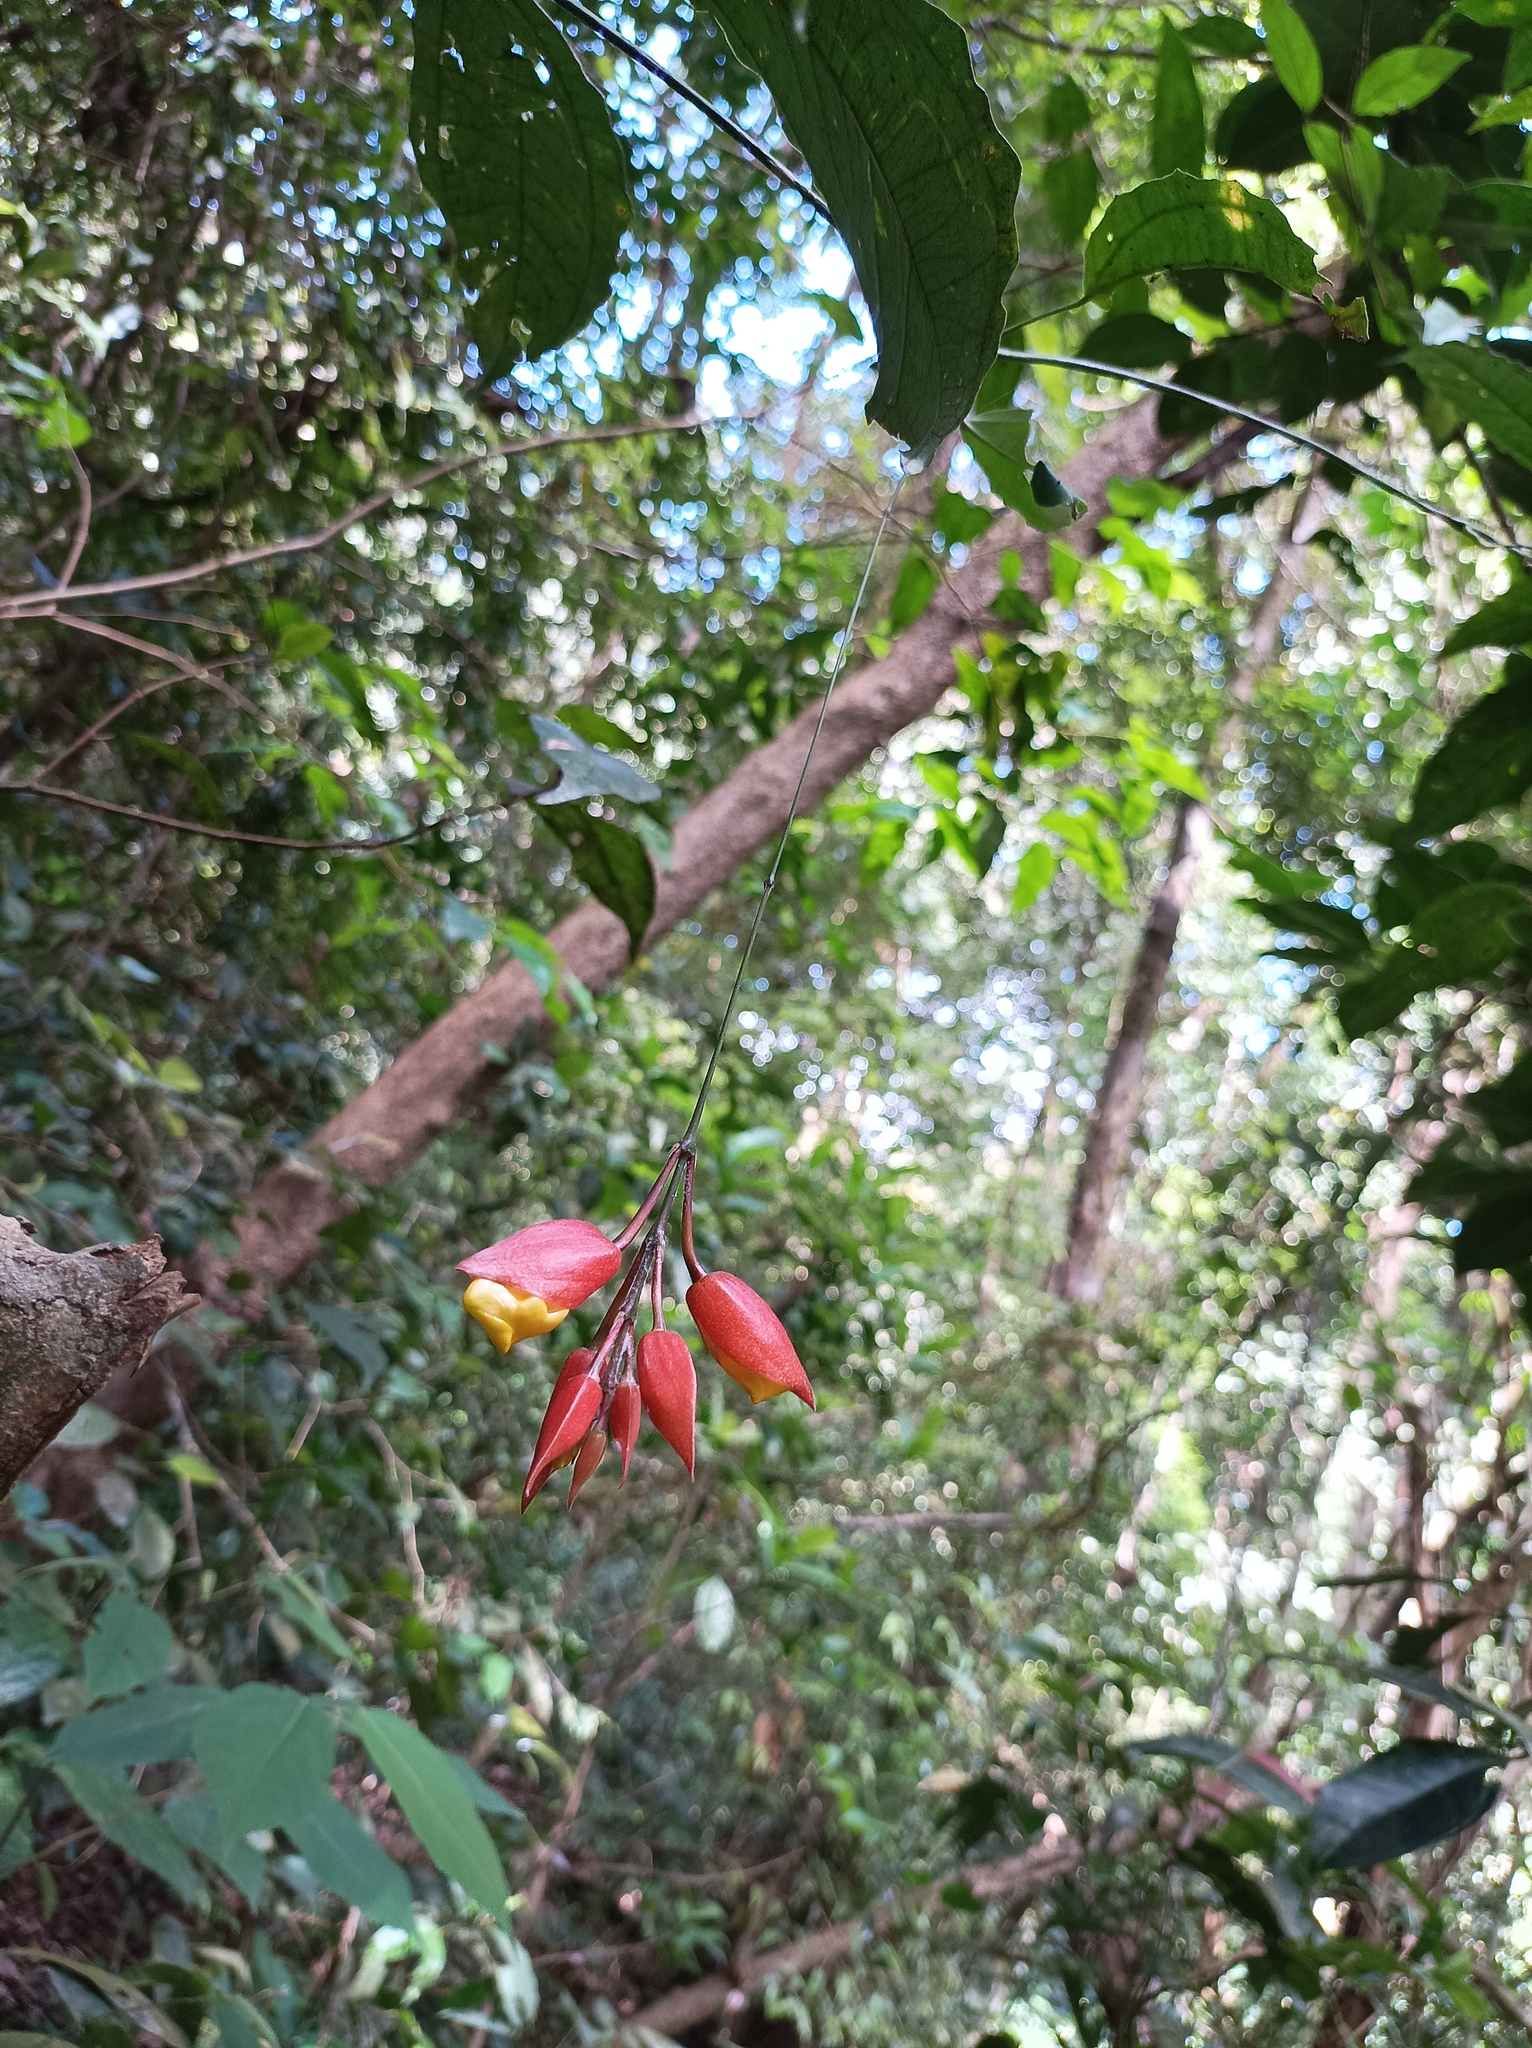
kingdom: Plantae
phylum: Tracheophyta
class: Magnoliopsida
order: Lamiales
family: Acanthaceae
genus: Thunbergia
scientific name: Thunbergia mysorensis
